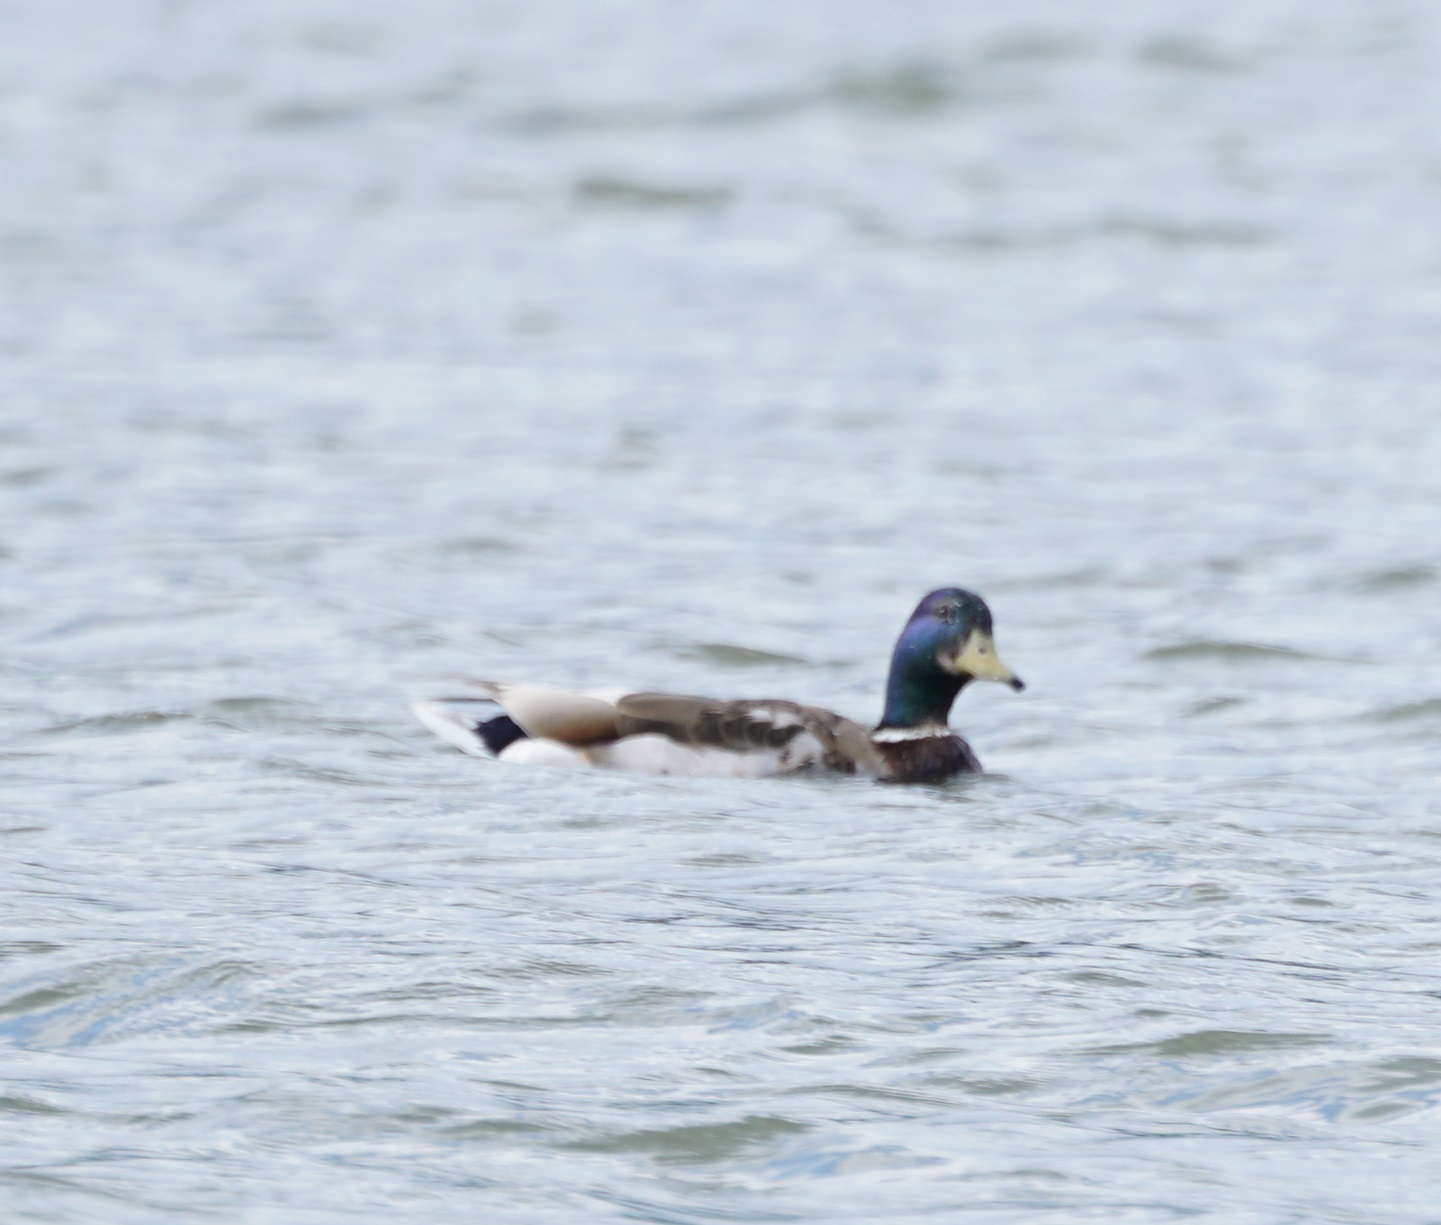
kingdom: Animalia
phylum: Chordata
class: Aves
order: Anseriformes
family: Anatidae
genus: Anas
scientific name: Anas platyrhynchos
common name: Mallard
